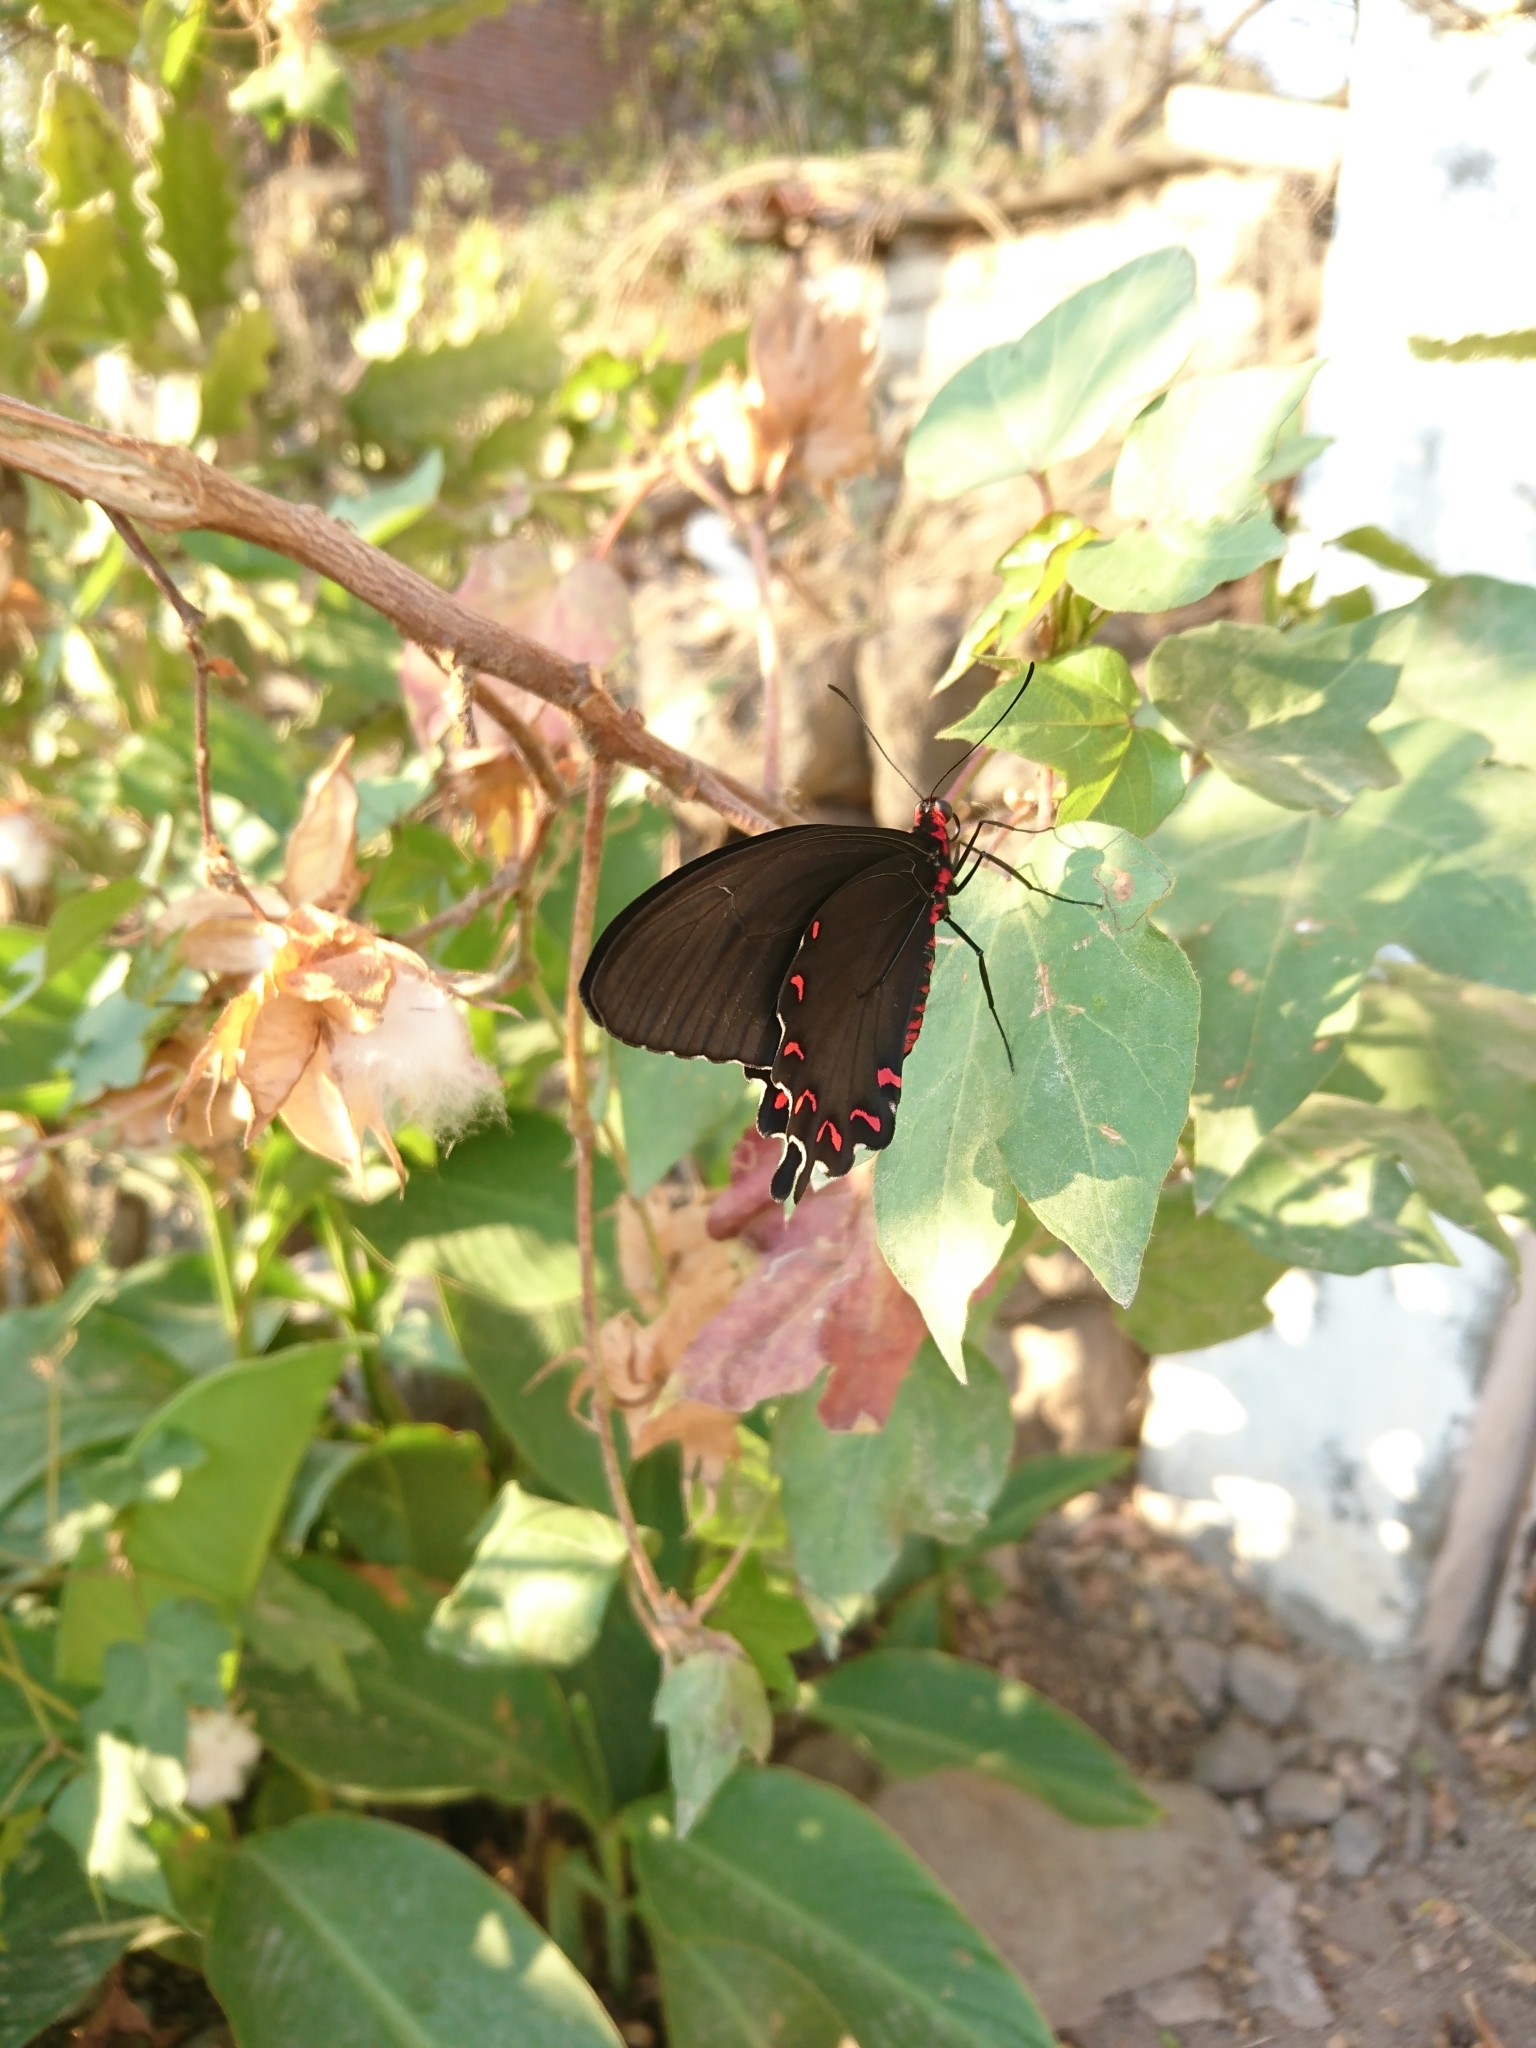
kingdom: Animalia
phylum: Arthropoda
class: Insecta
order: Lepidoptera
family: Papilionidae
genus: Parides
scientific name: Parides montezuma
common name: Montezuma's cattleheart
